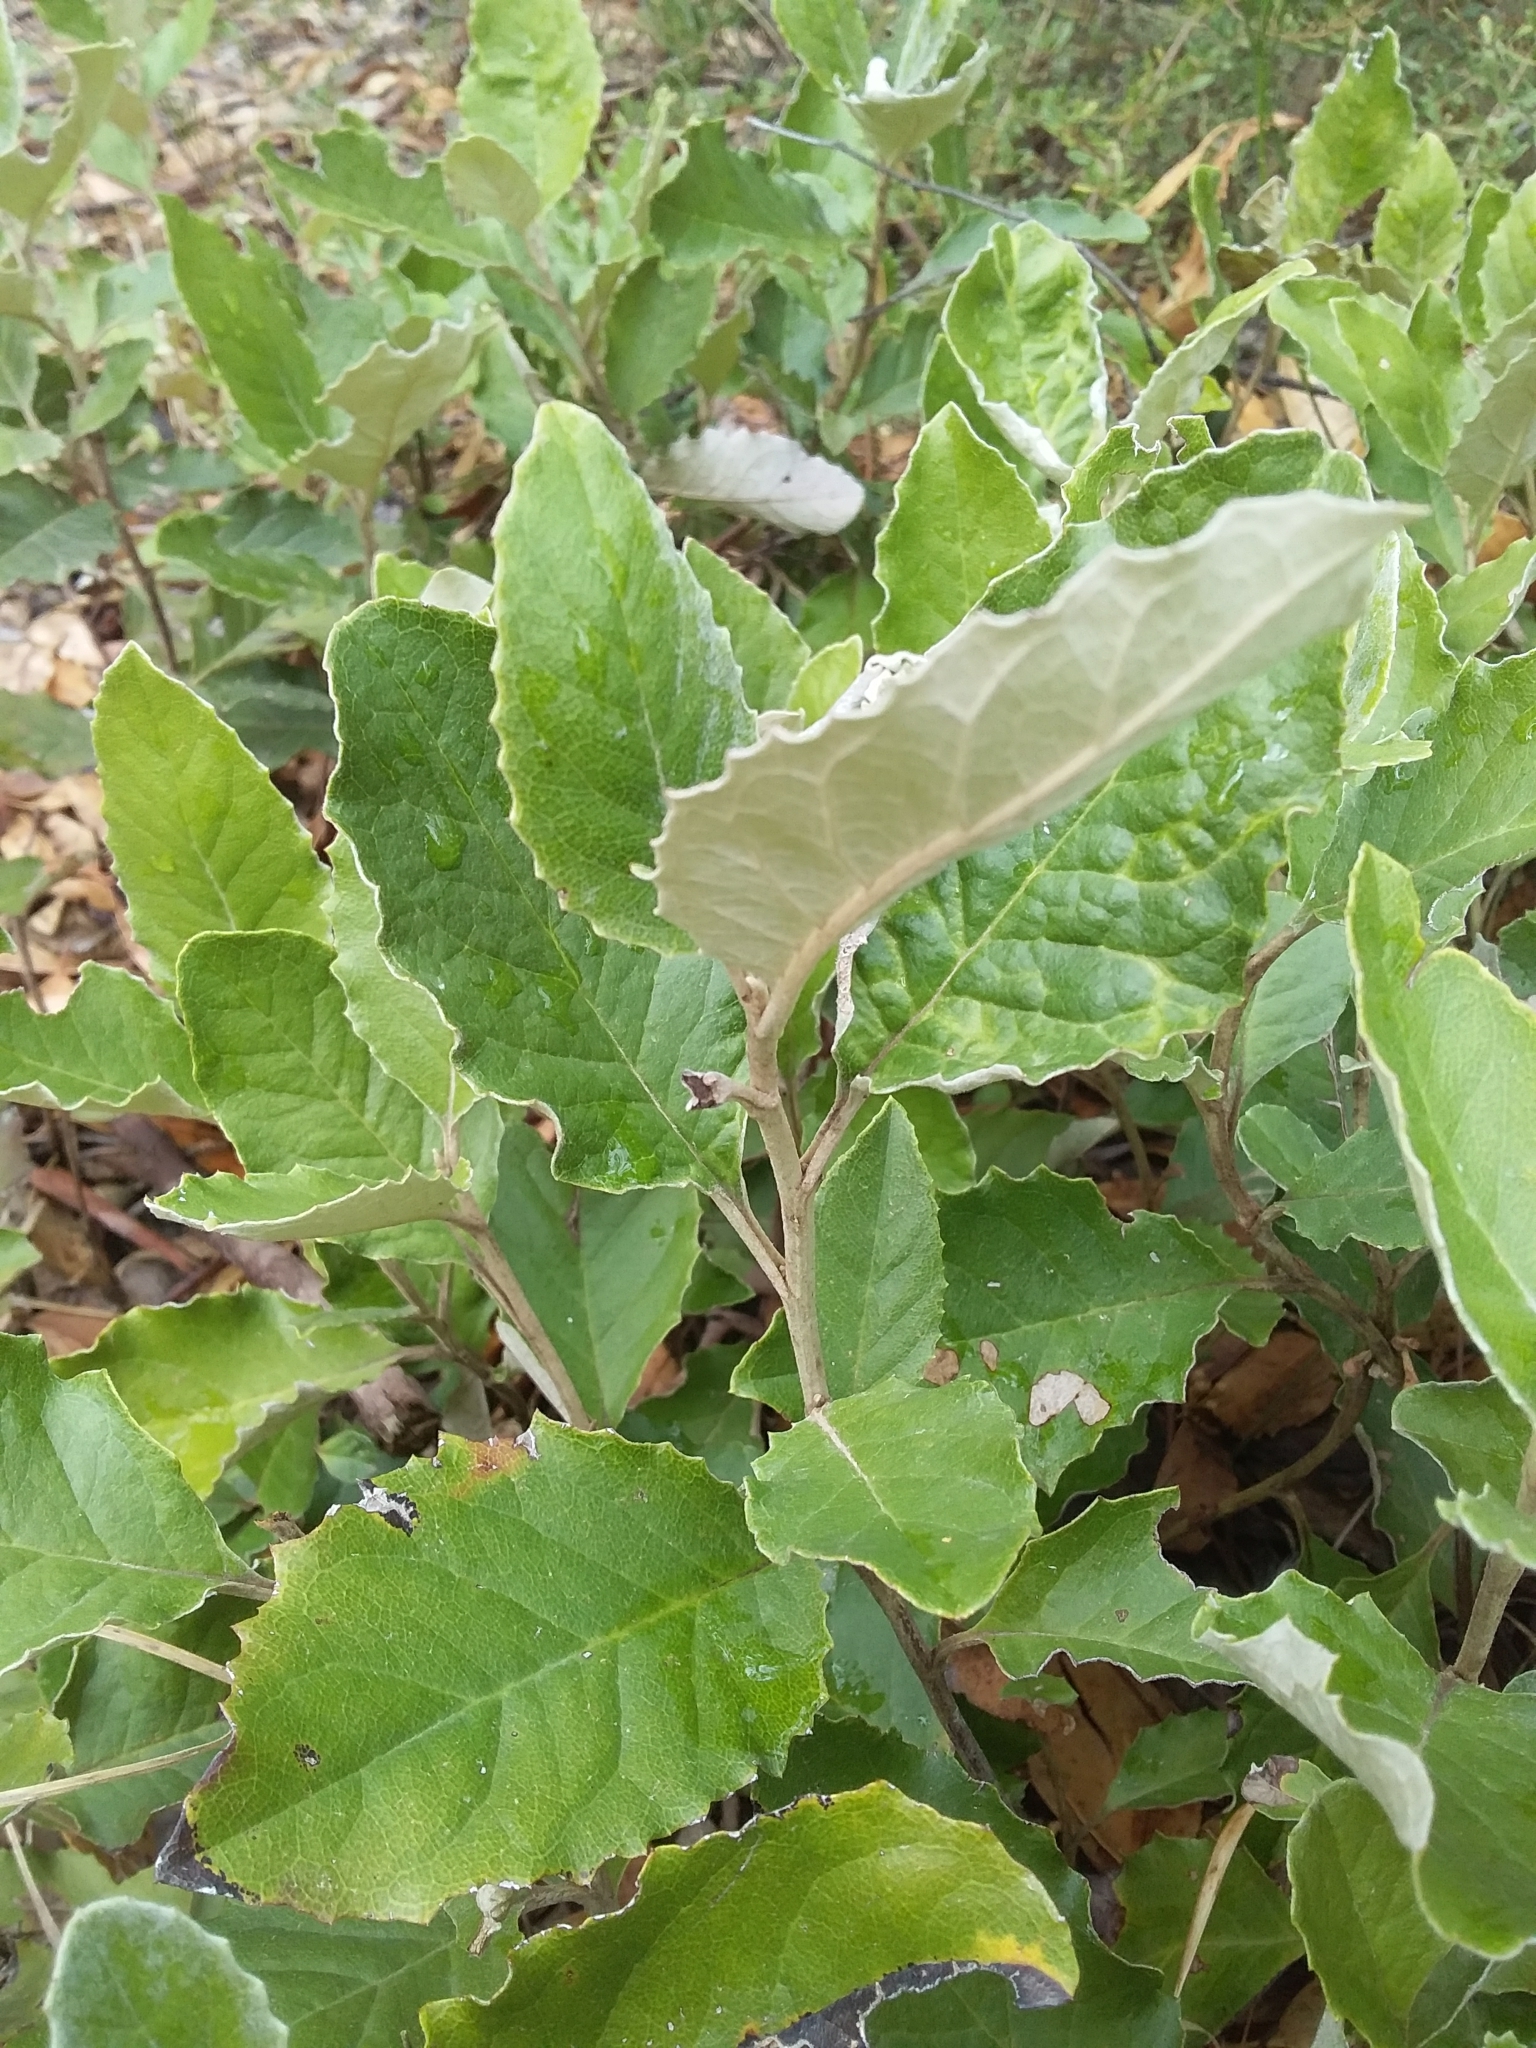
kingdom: Plantae
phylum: Tracheophyta
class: Magnoliopsida
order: Asterales
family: Asteraceae
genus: Olearia
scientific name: Olearia grandiflora
